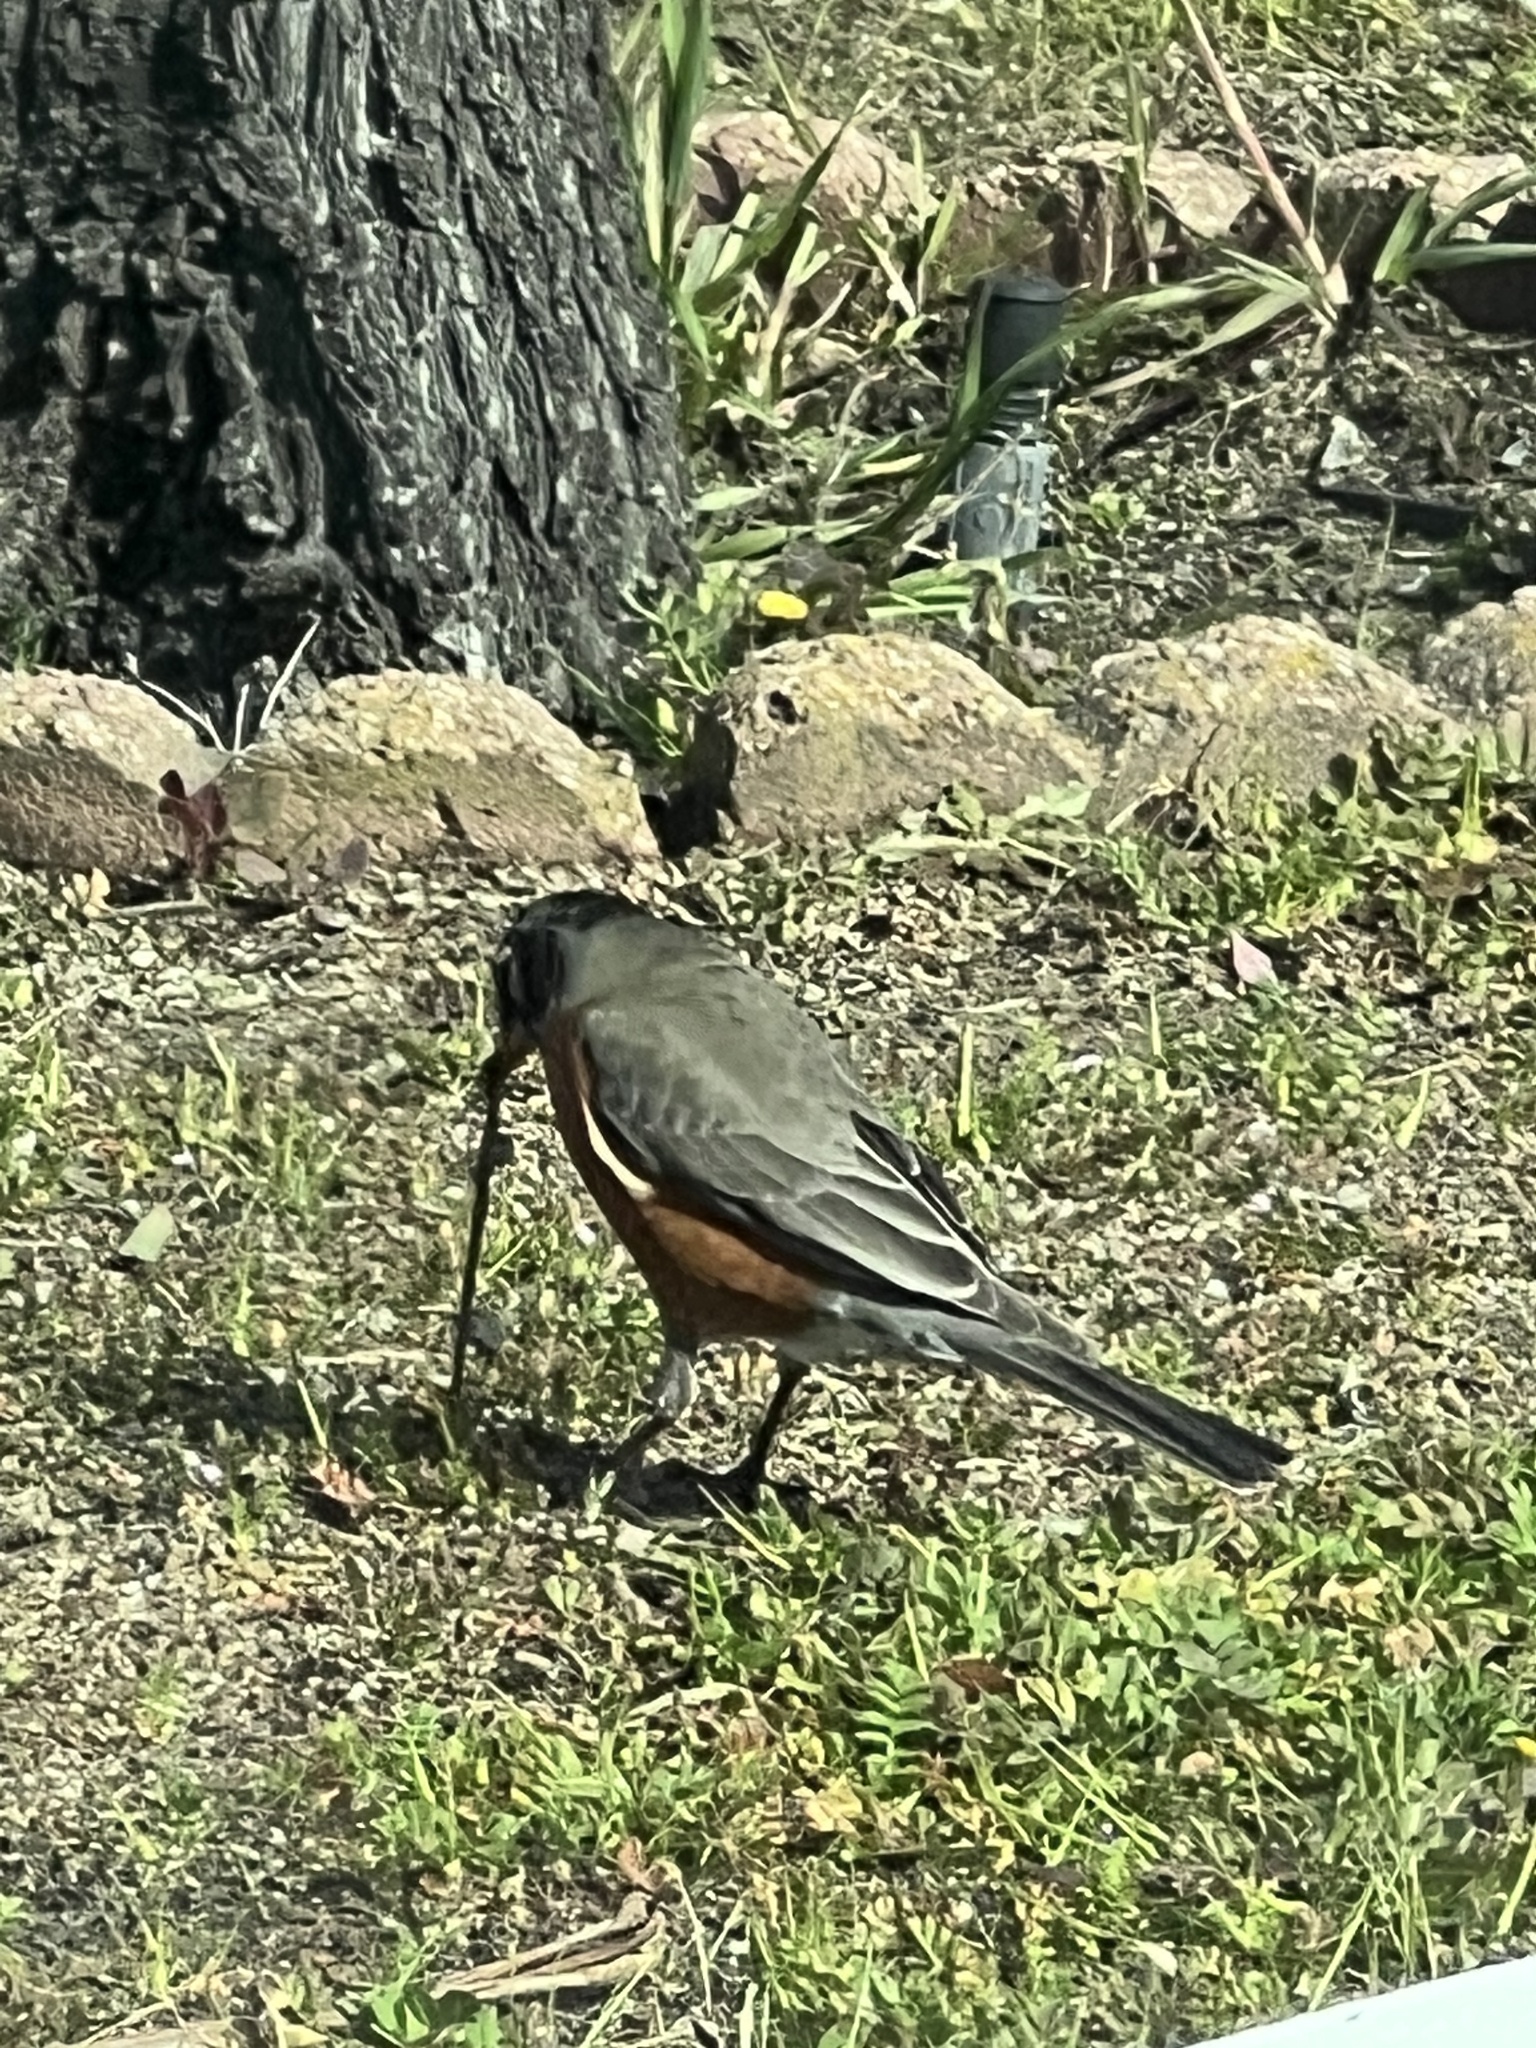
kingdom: Animalia
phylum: Chordata
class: Aves
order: Passeriformes
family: Turdidae
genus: Turdus
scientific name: Turdus migratorius
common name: American robin
